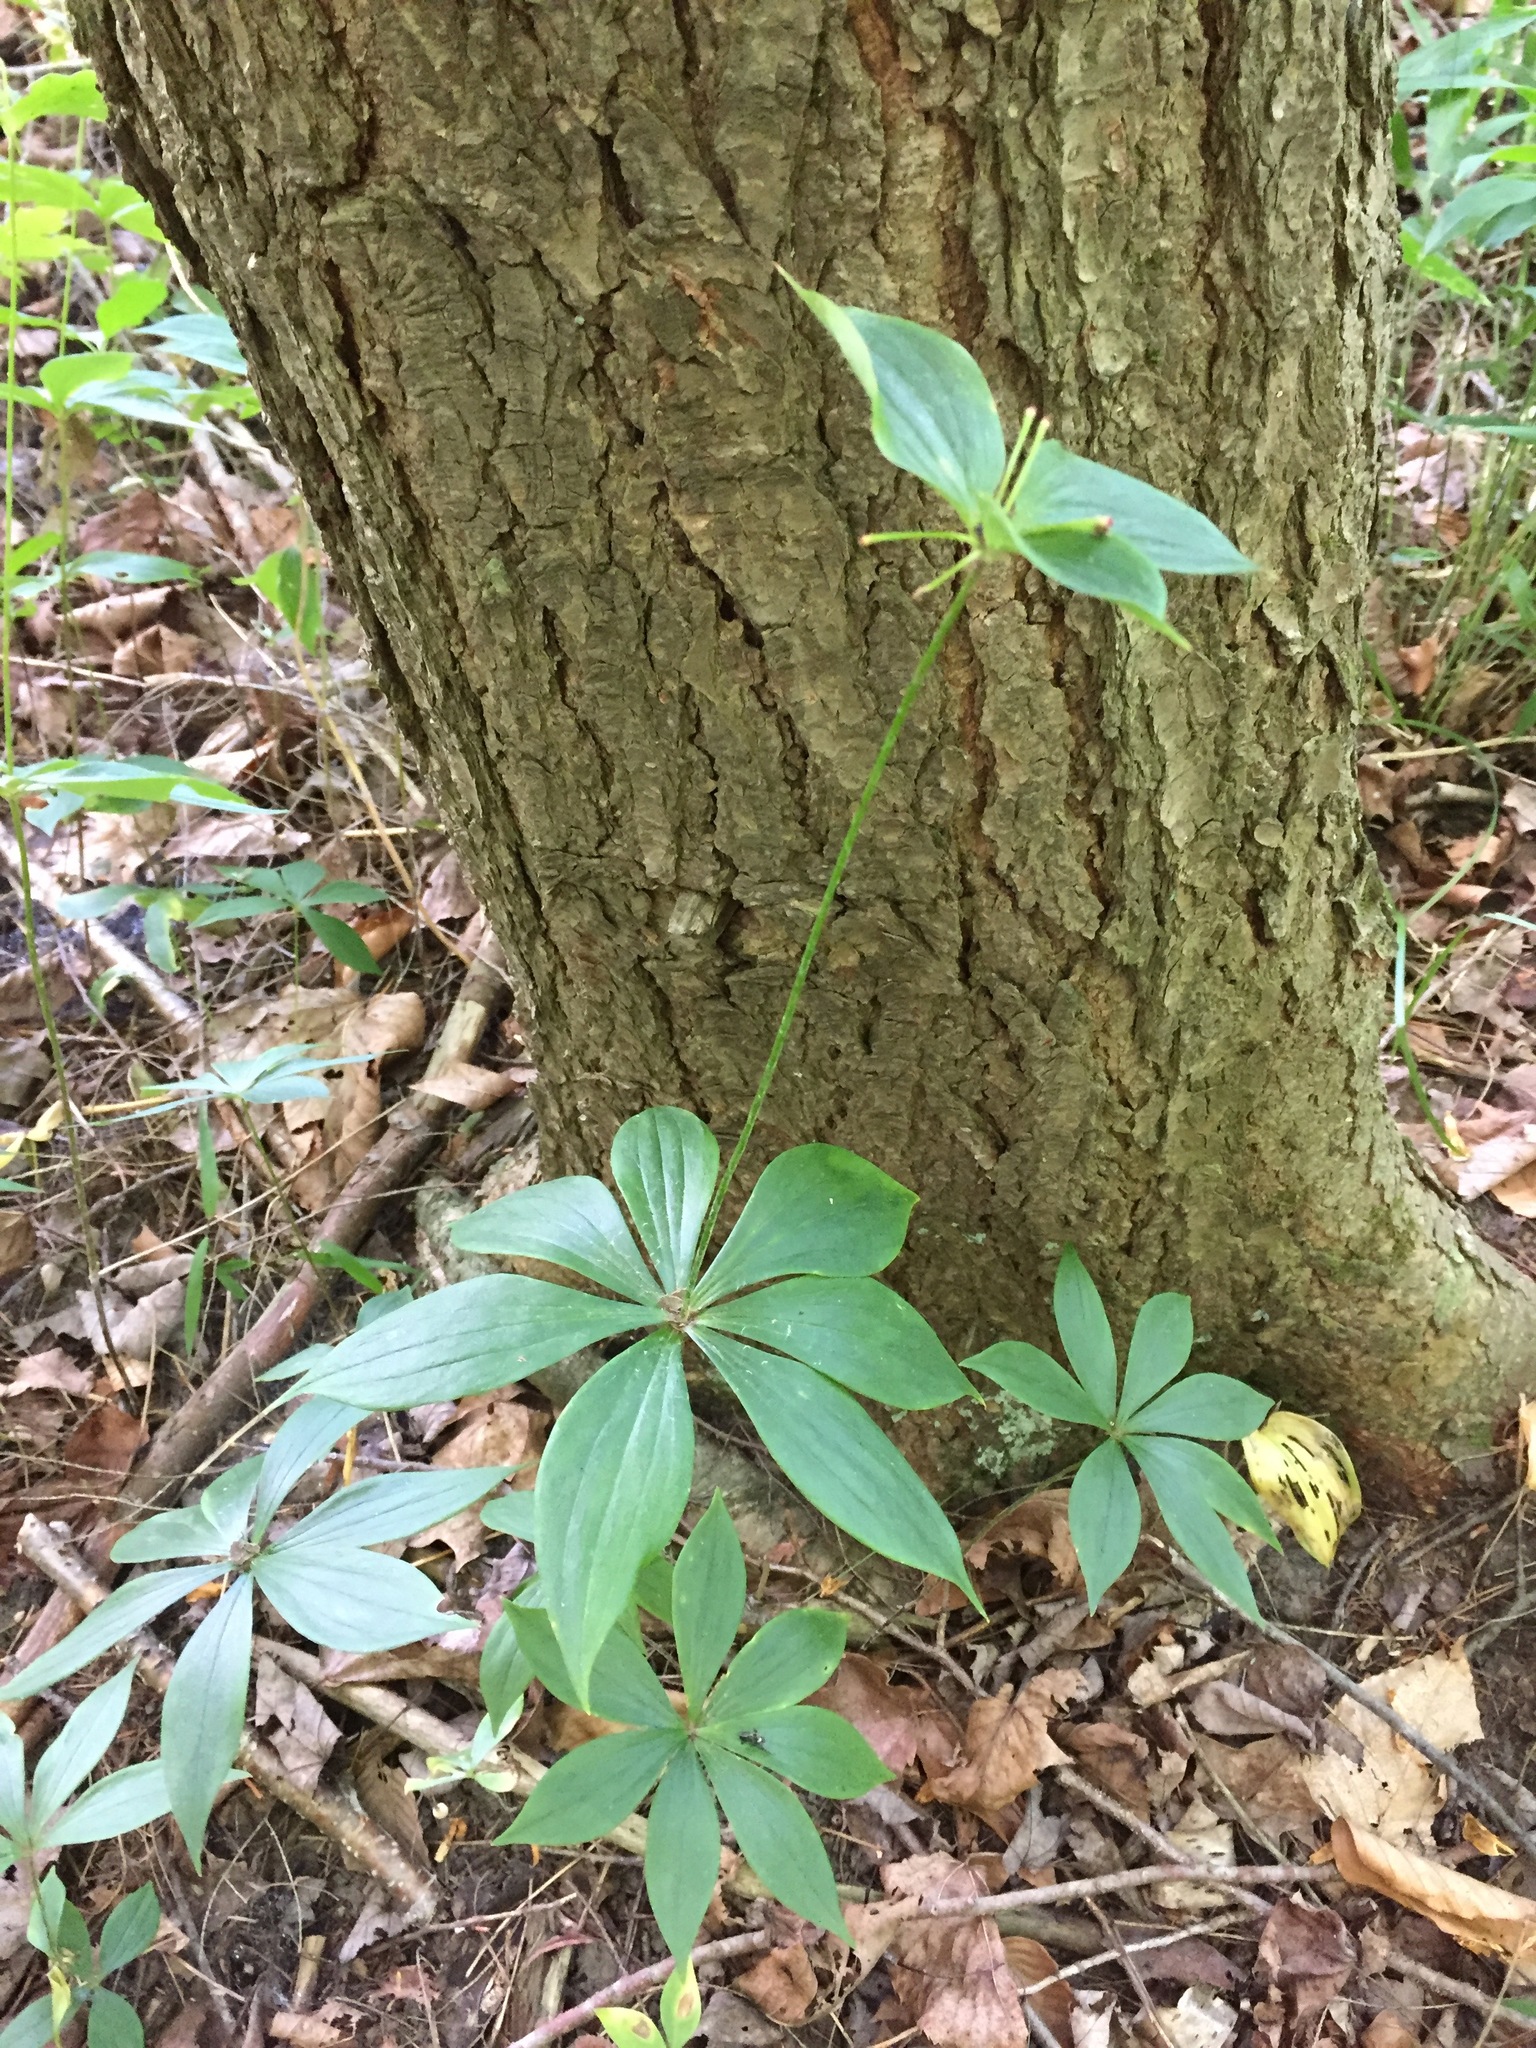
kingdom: Plantae
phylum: Tracheophyta
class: Liliopsida
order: Liliales
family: Liliaceae
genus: Medeola
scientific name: Medeola virginiana
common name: Indian cucumber-root
